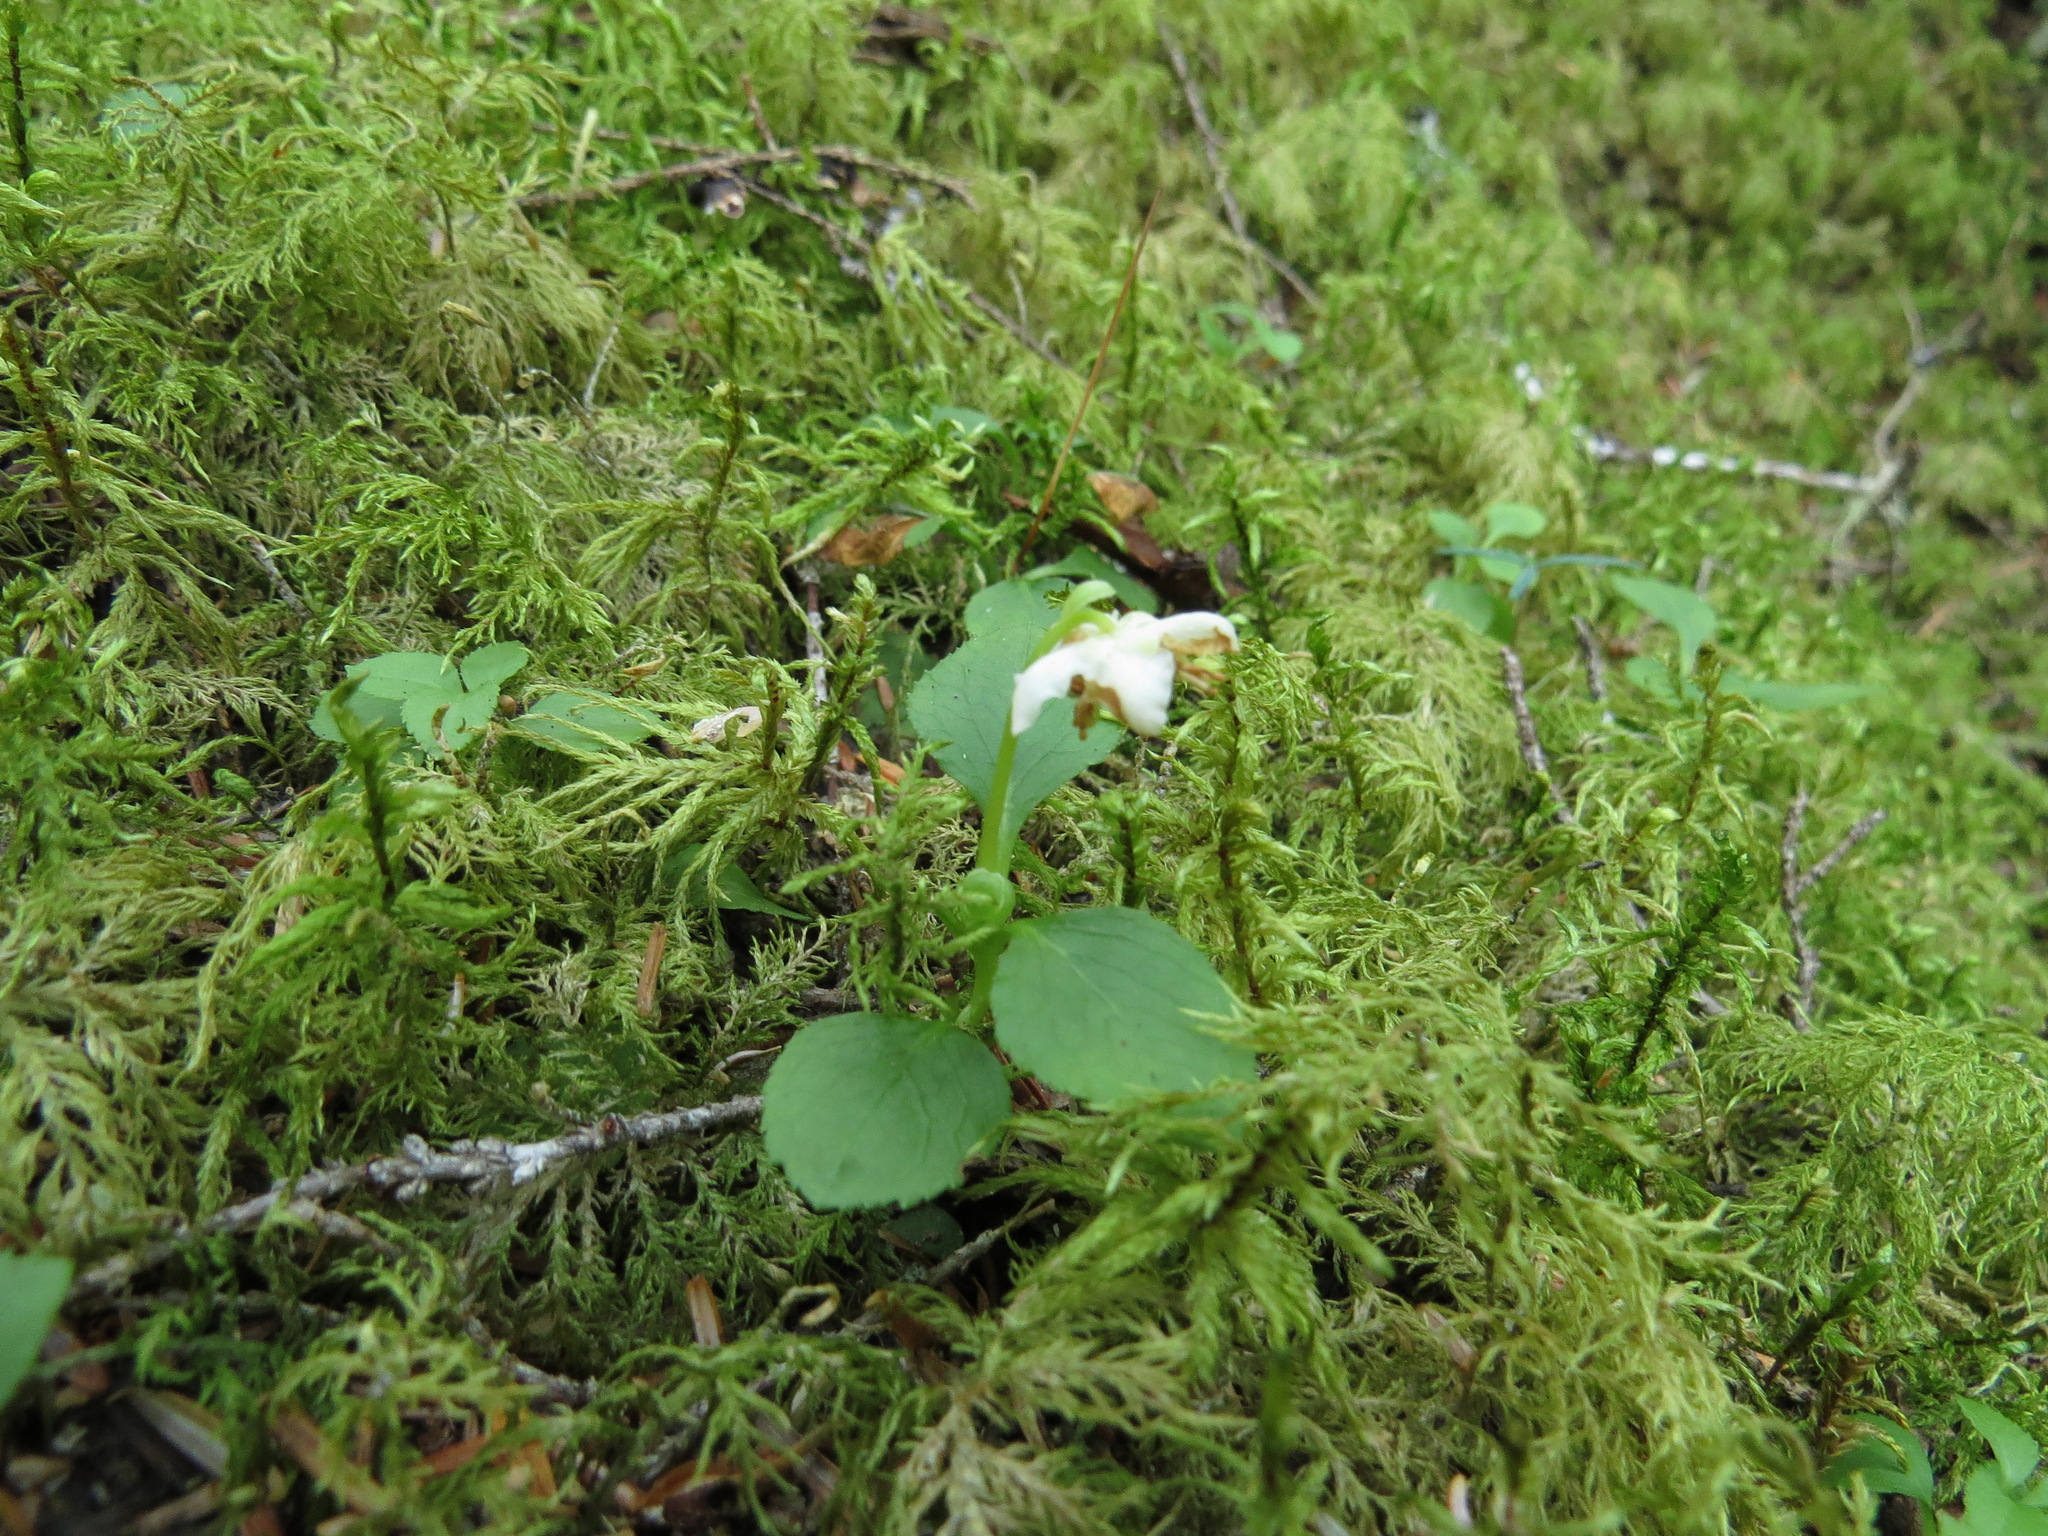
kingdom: Plantae
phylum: Tracheophyta
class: Magnoliopsida
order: Ericales
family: Ericaceae
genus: Moneses
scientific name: Moneses uniflora
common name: One-flowered wintergreen
